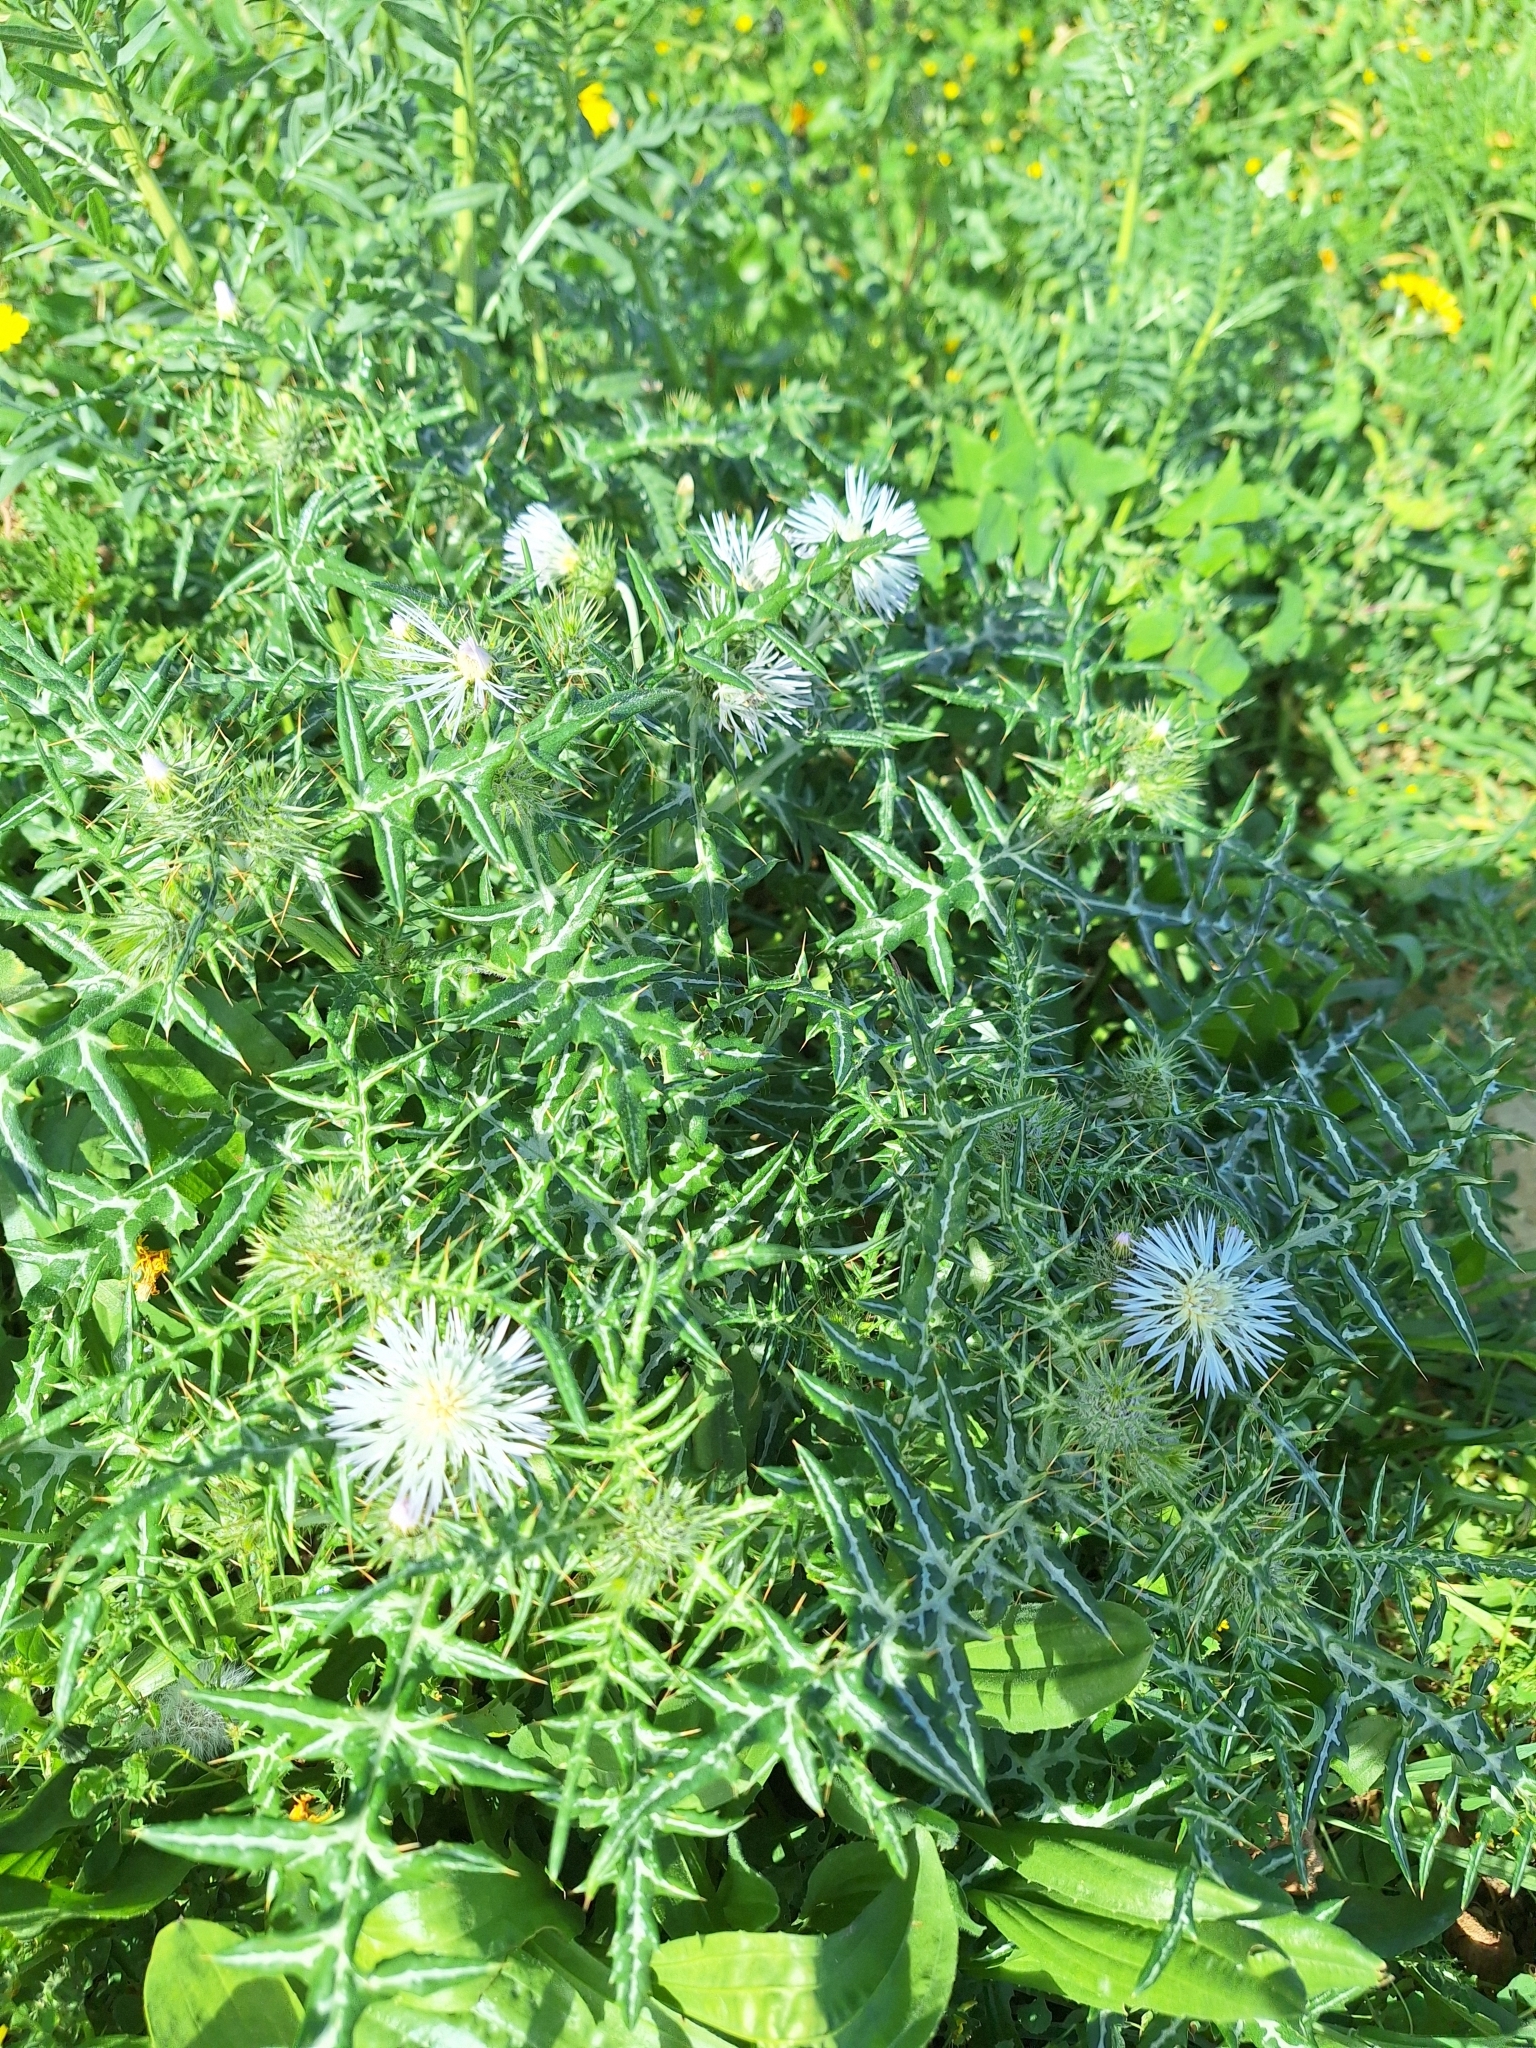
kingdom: Plantae
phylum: Tracheophyta
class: Magnoliopsida
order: Asterales
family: Asteraceae
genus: Galactites
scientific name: Galactites tomentosa
